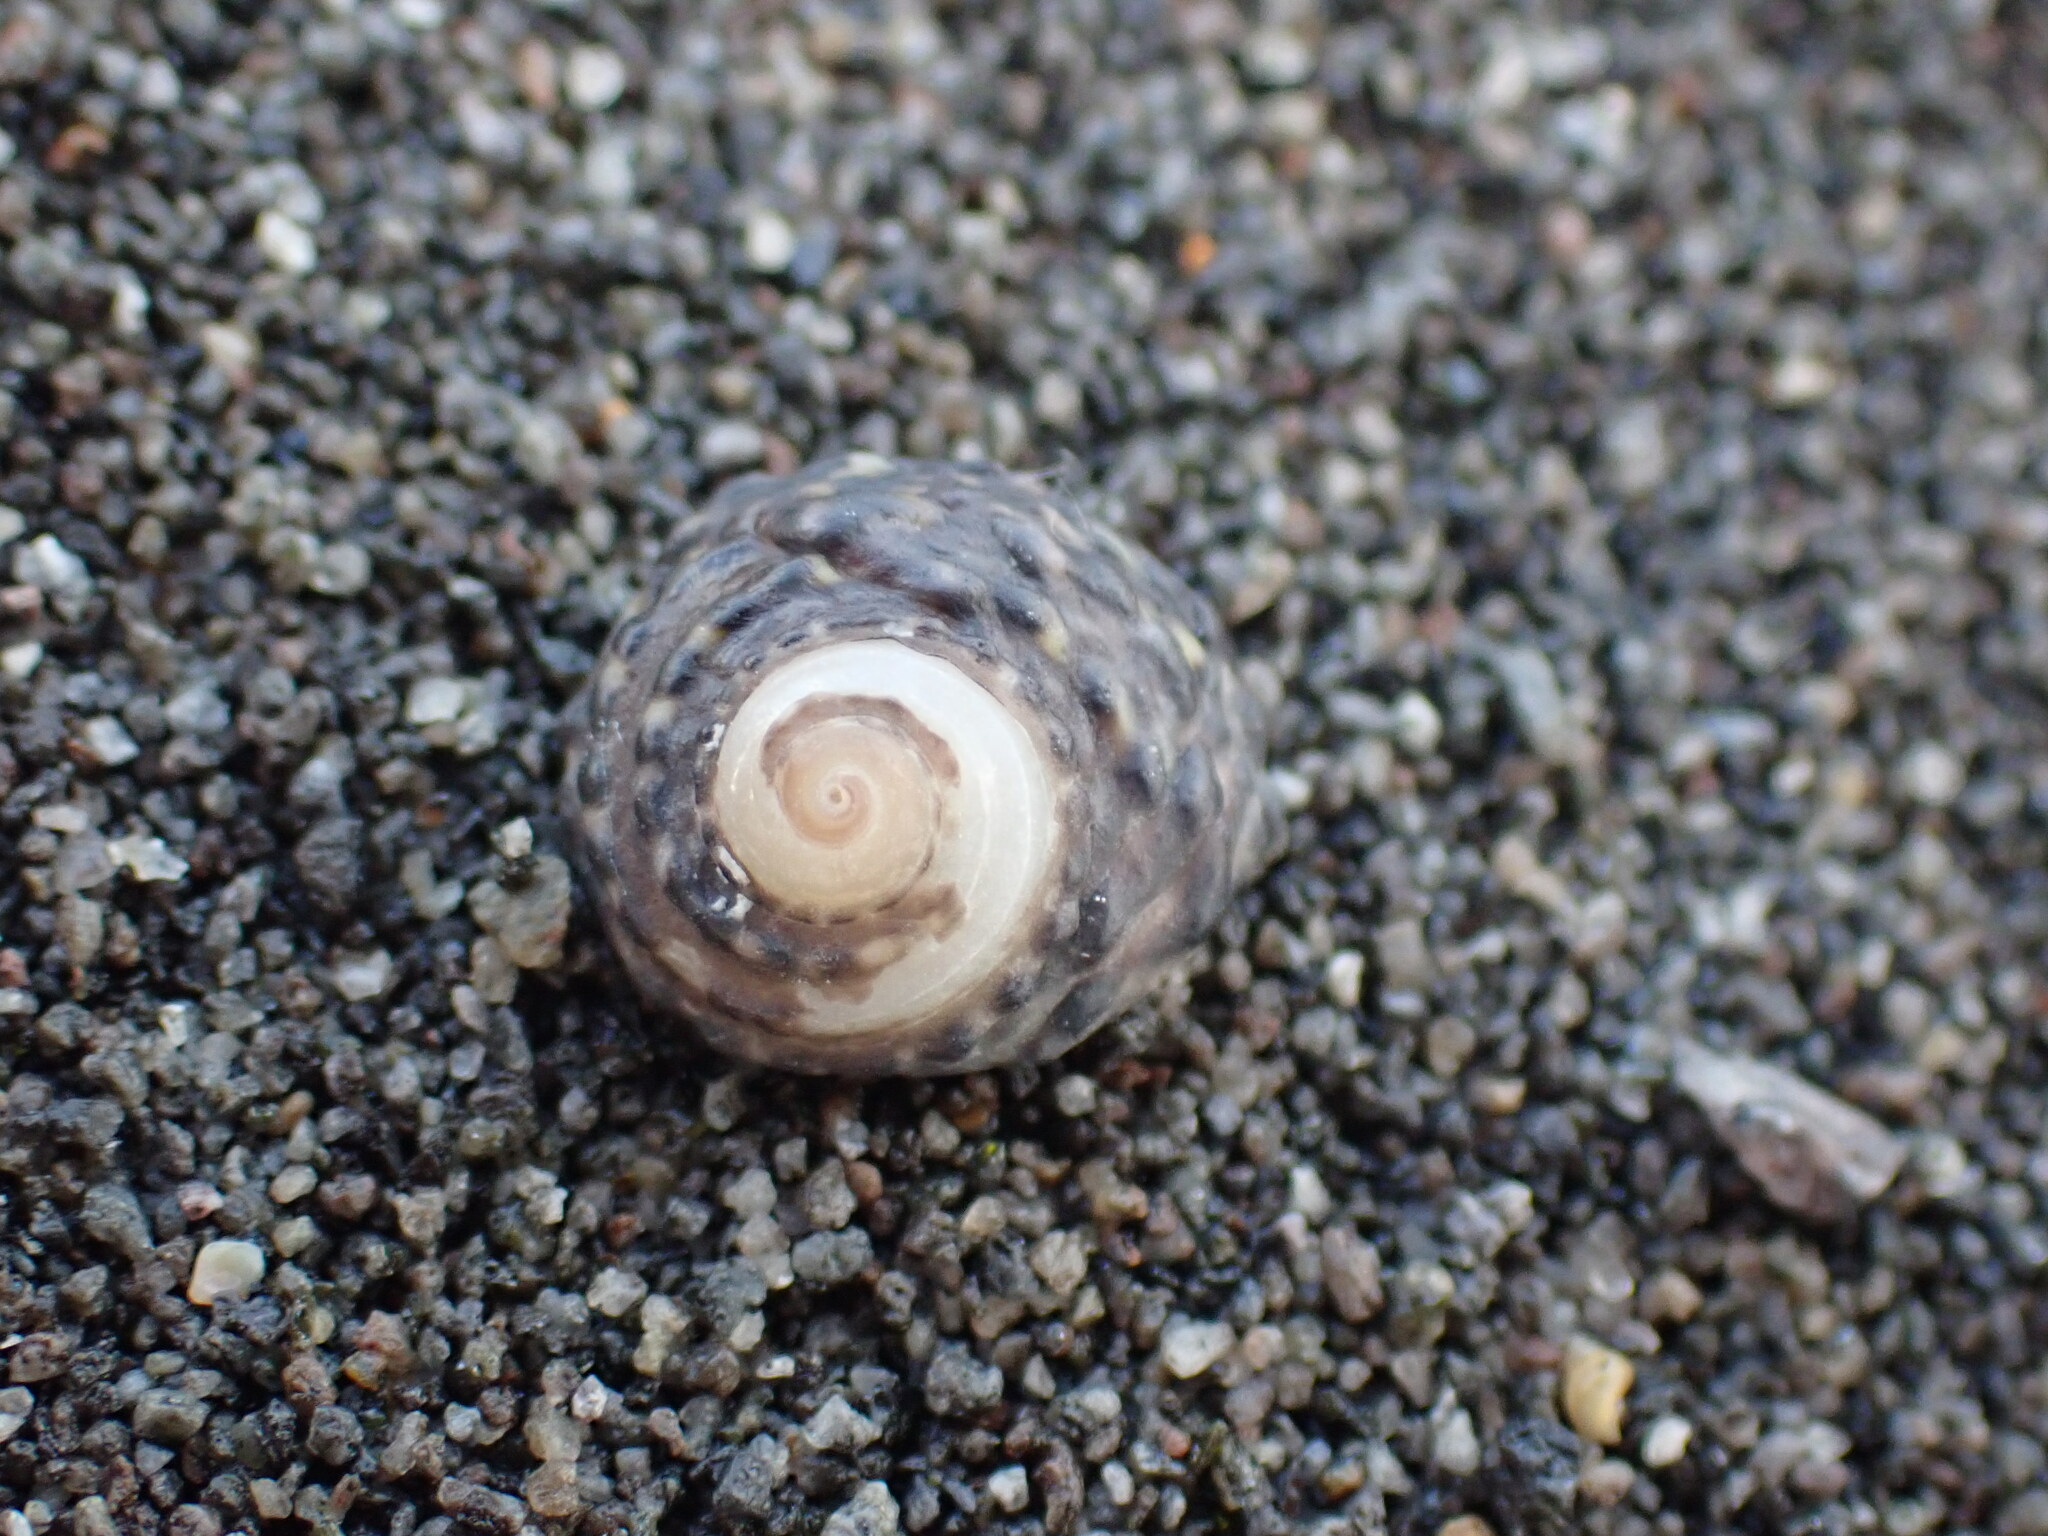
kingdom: Animalia
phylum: Mollusca
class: Gastropoda
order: Trochida
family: Trochidae
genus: Diloma
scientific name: Diloma bicanaliculatum
